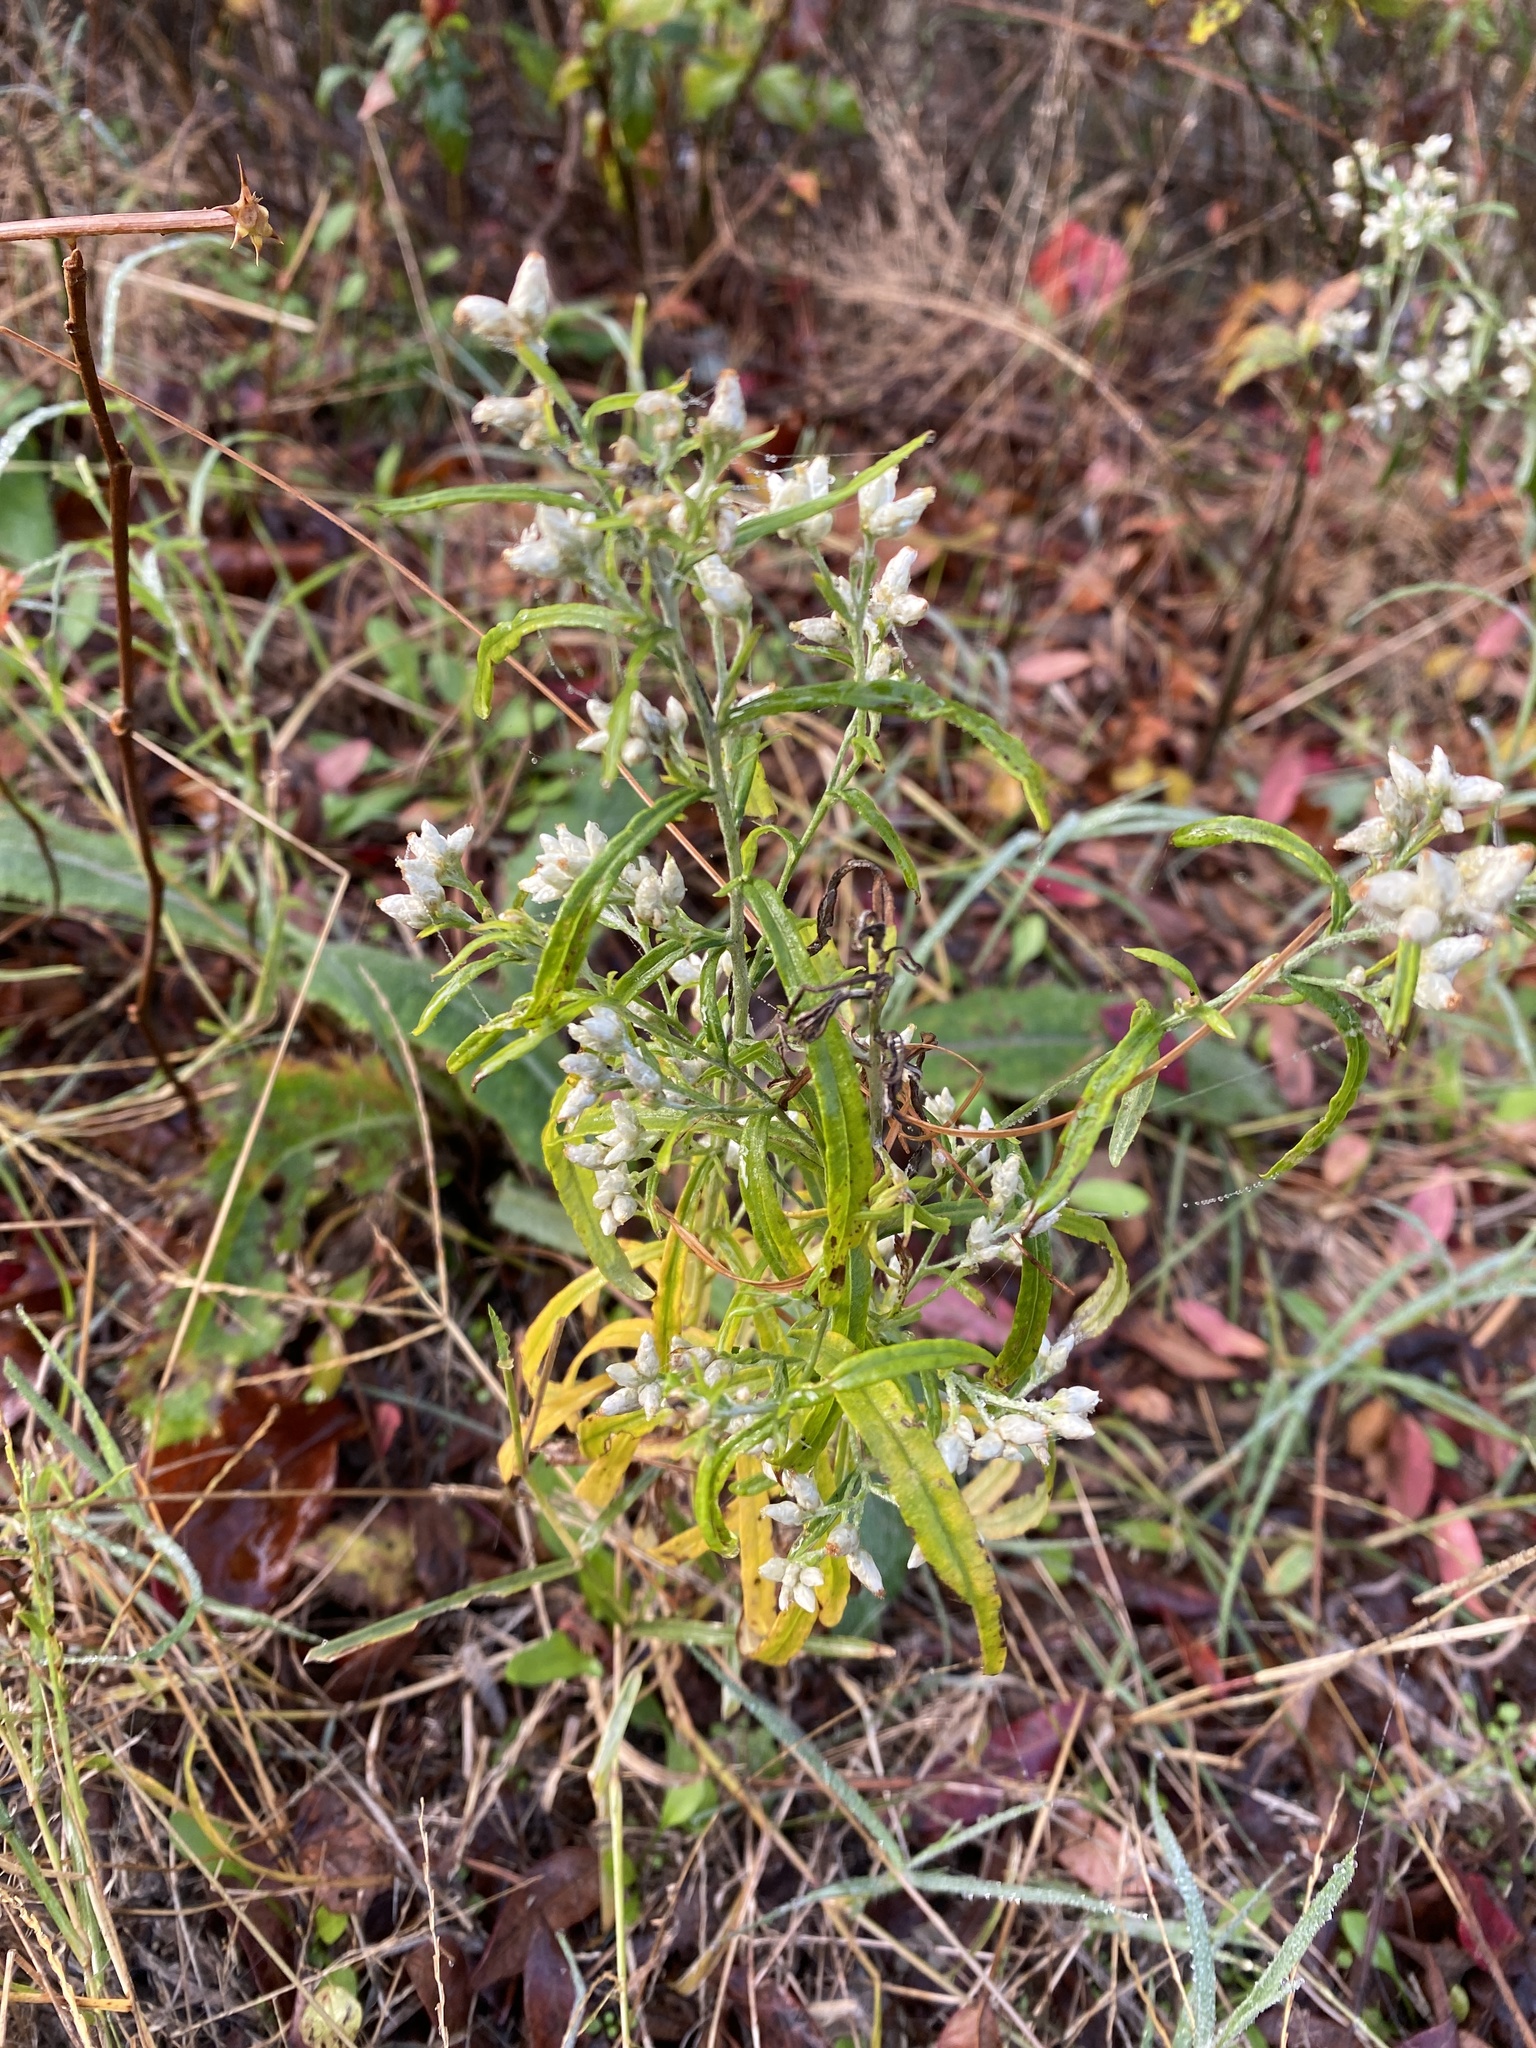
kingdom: Plantae
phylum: Tracheophyta
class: Magnoliopsida
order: Asterales
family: Asteraceae
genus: Pseudognaphalium
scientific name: Pseudognaphalium obtusifolium
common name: Eastern rabbit-tobacco
